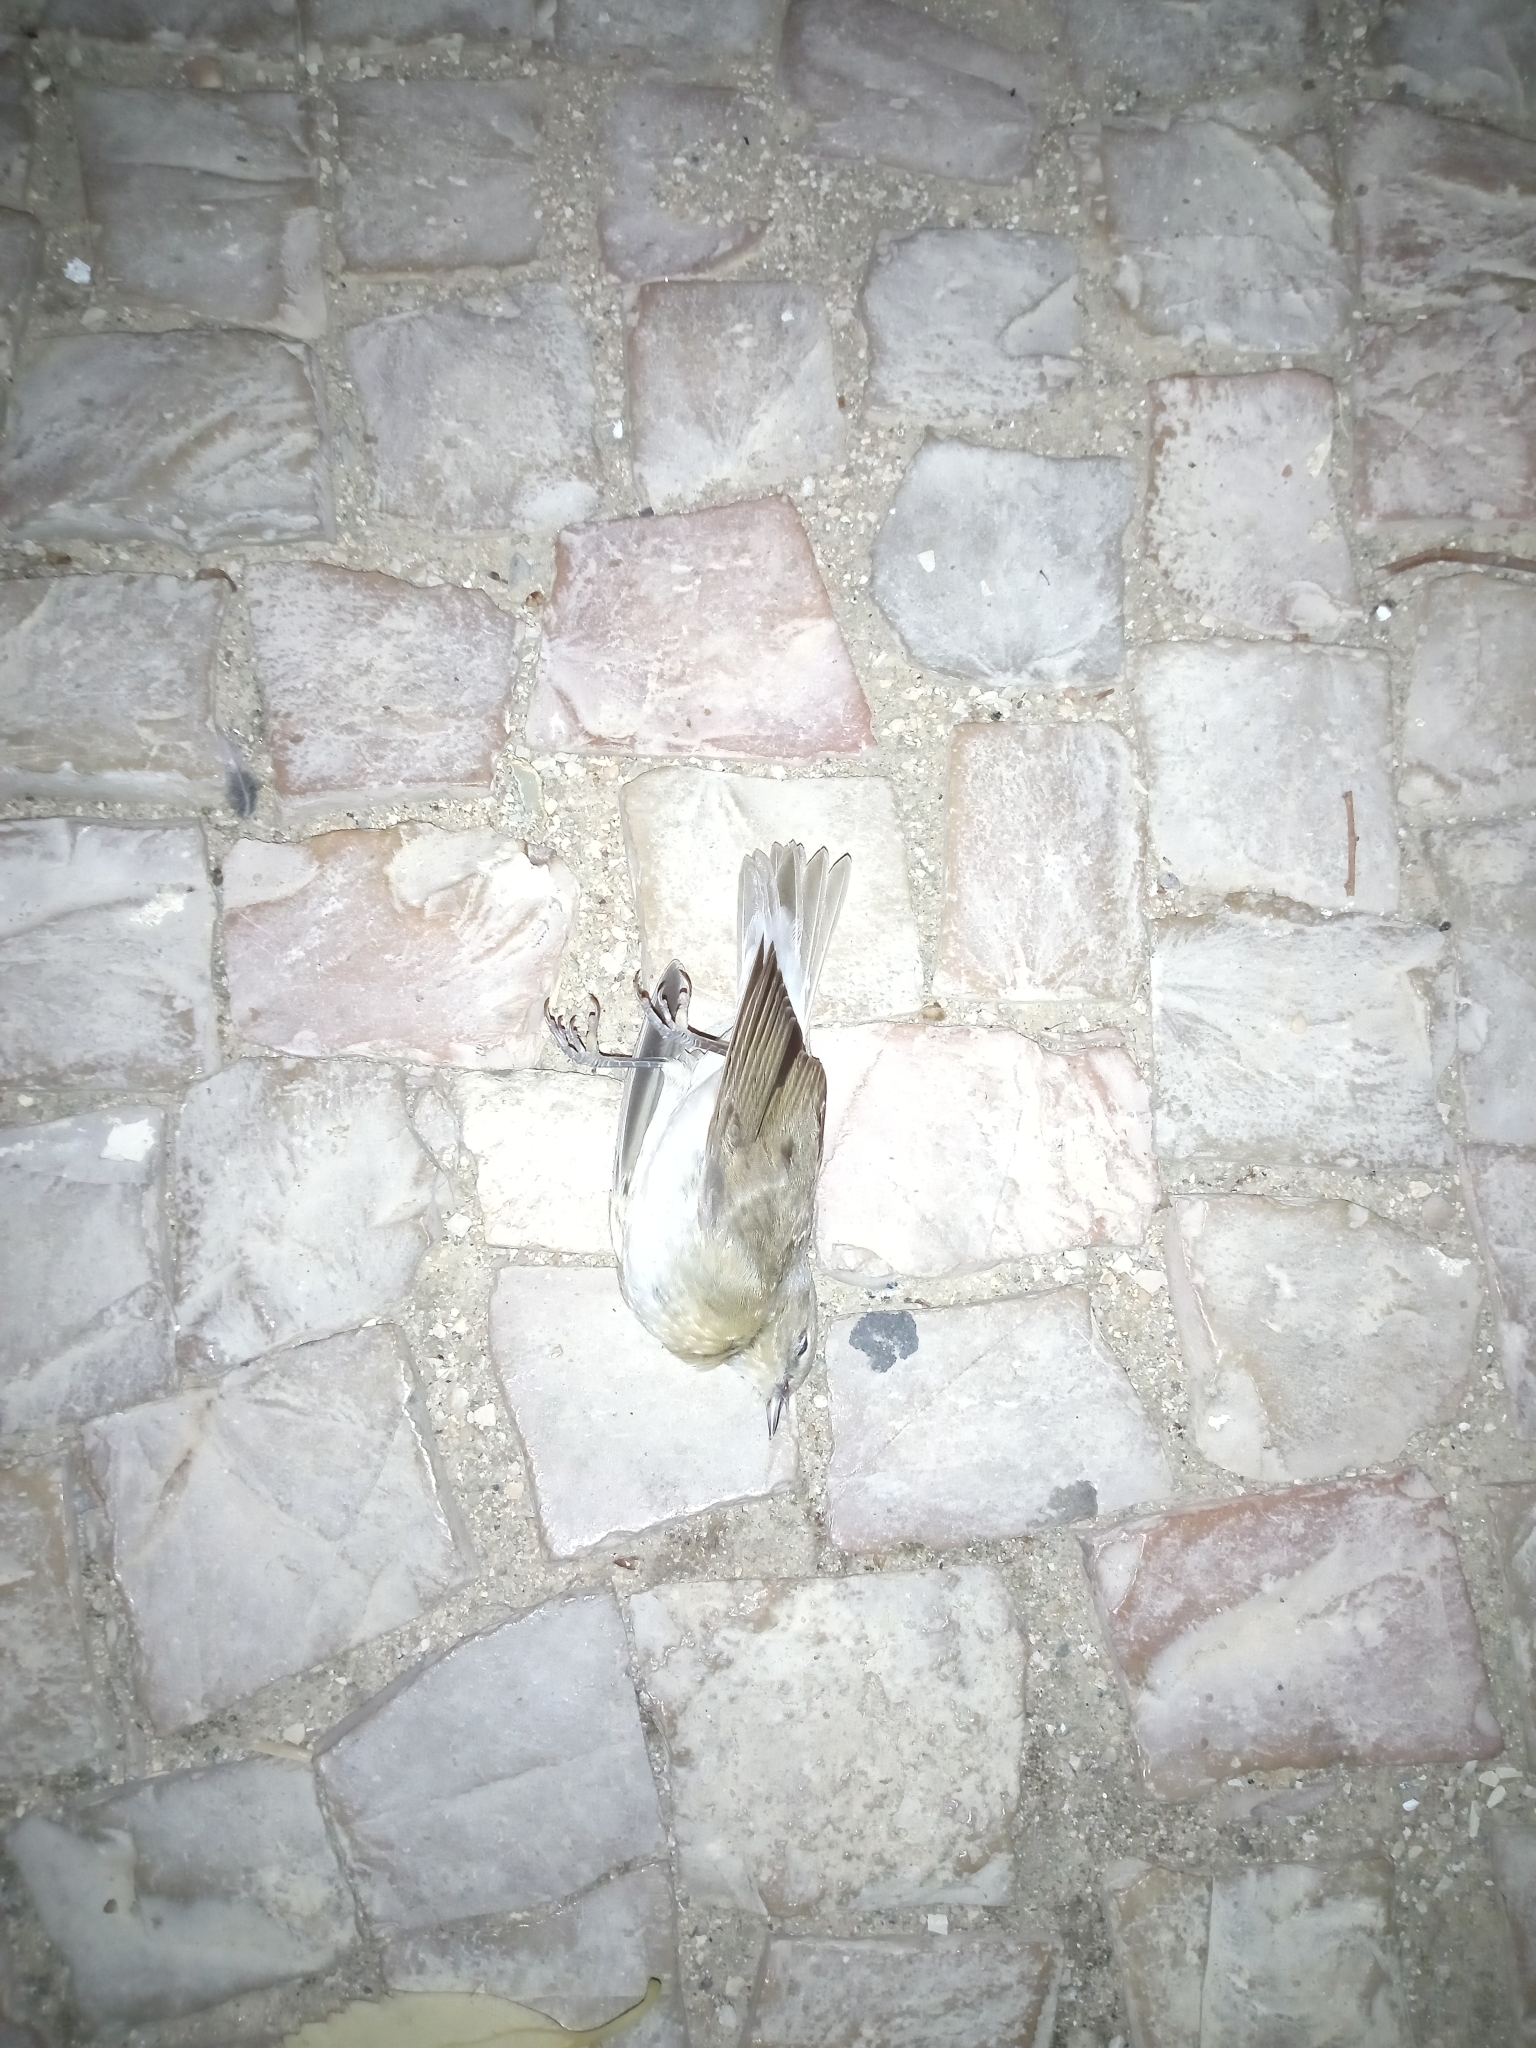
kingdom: Animalia
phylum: Chordata
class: Aves
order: Passeriformes
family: Sylviidae
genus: Sylvia
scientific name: Sylvia borin
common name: Garden warbler
